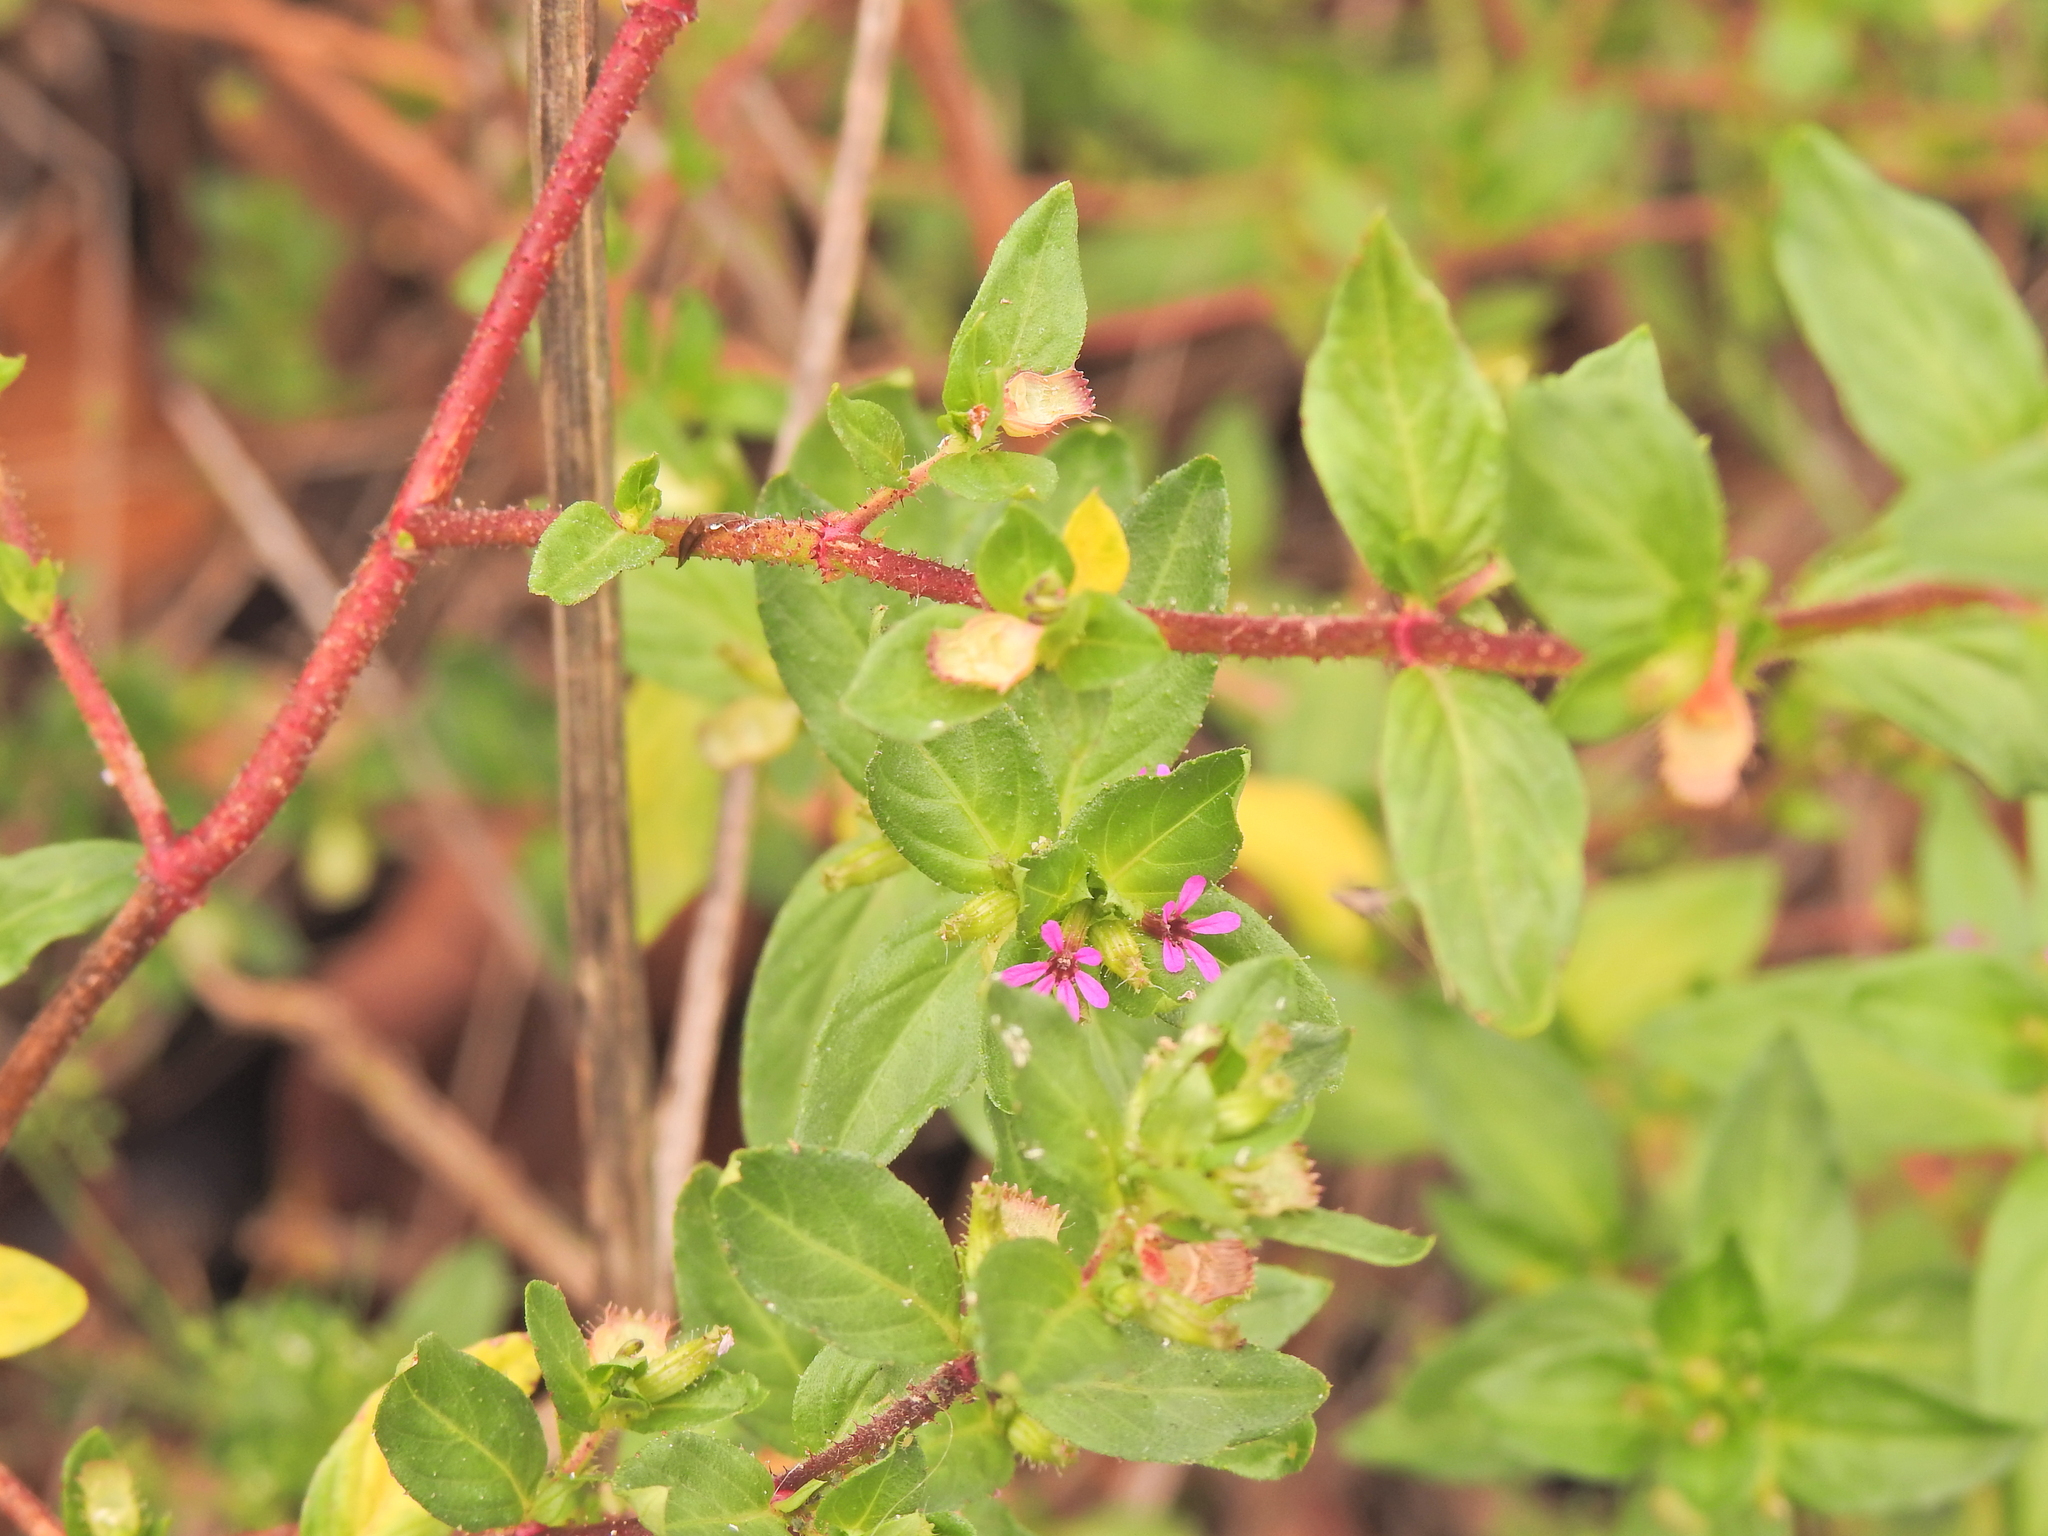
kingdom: Plantae
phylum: Tracheophyta
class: Magnoliopsida
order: Myrtales
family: Lythraceae
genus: Cuphea
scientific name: Cuphea carthagenensis
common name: Colombian waxweed
